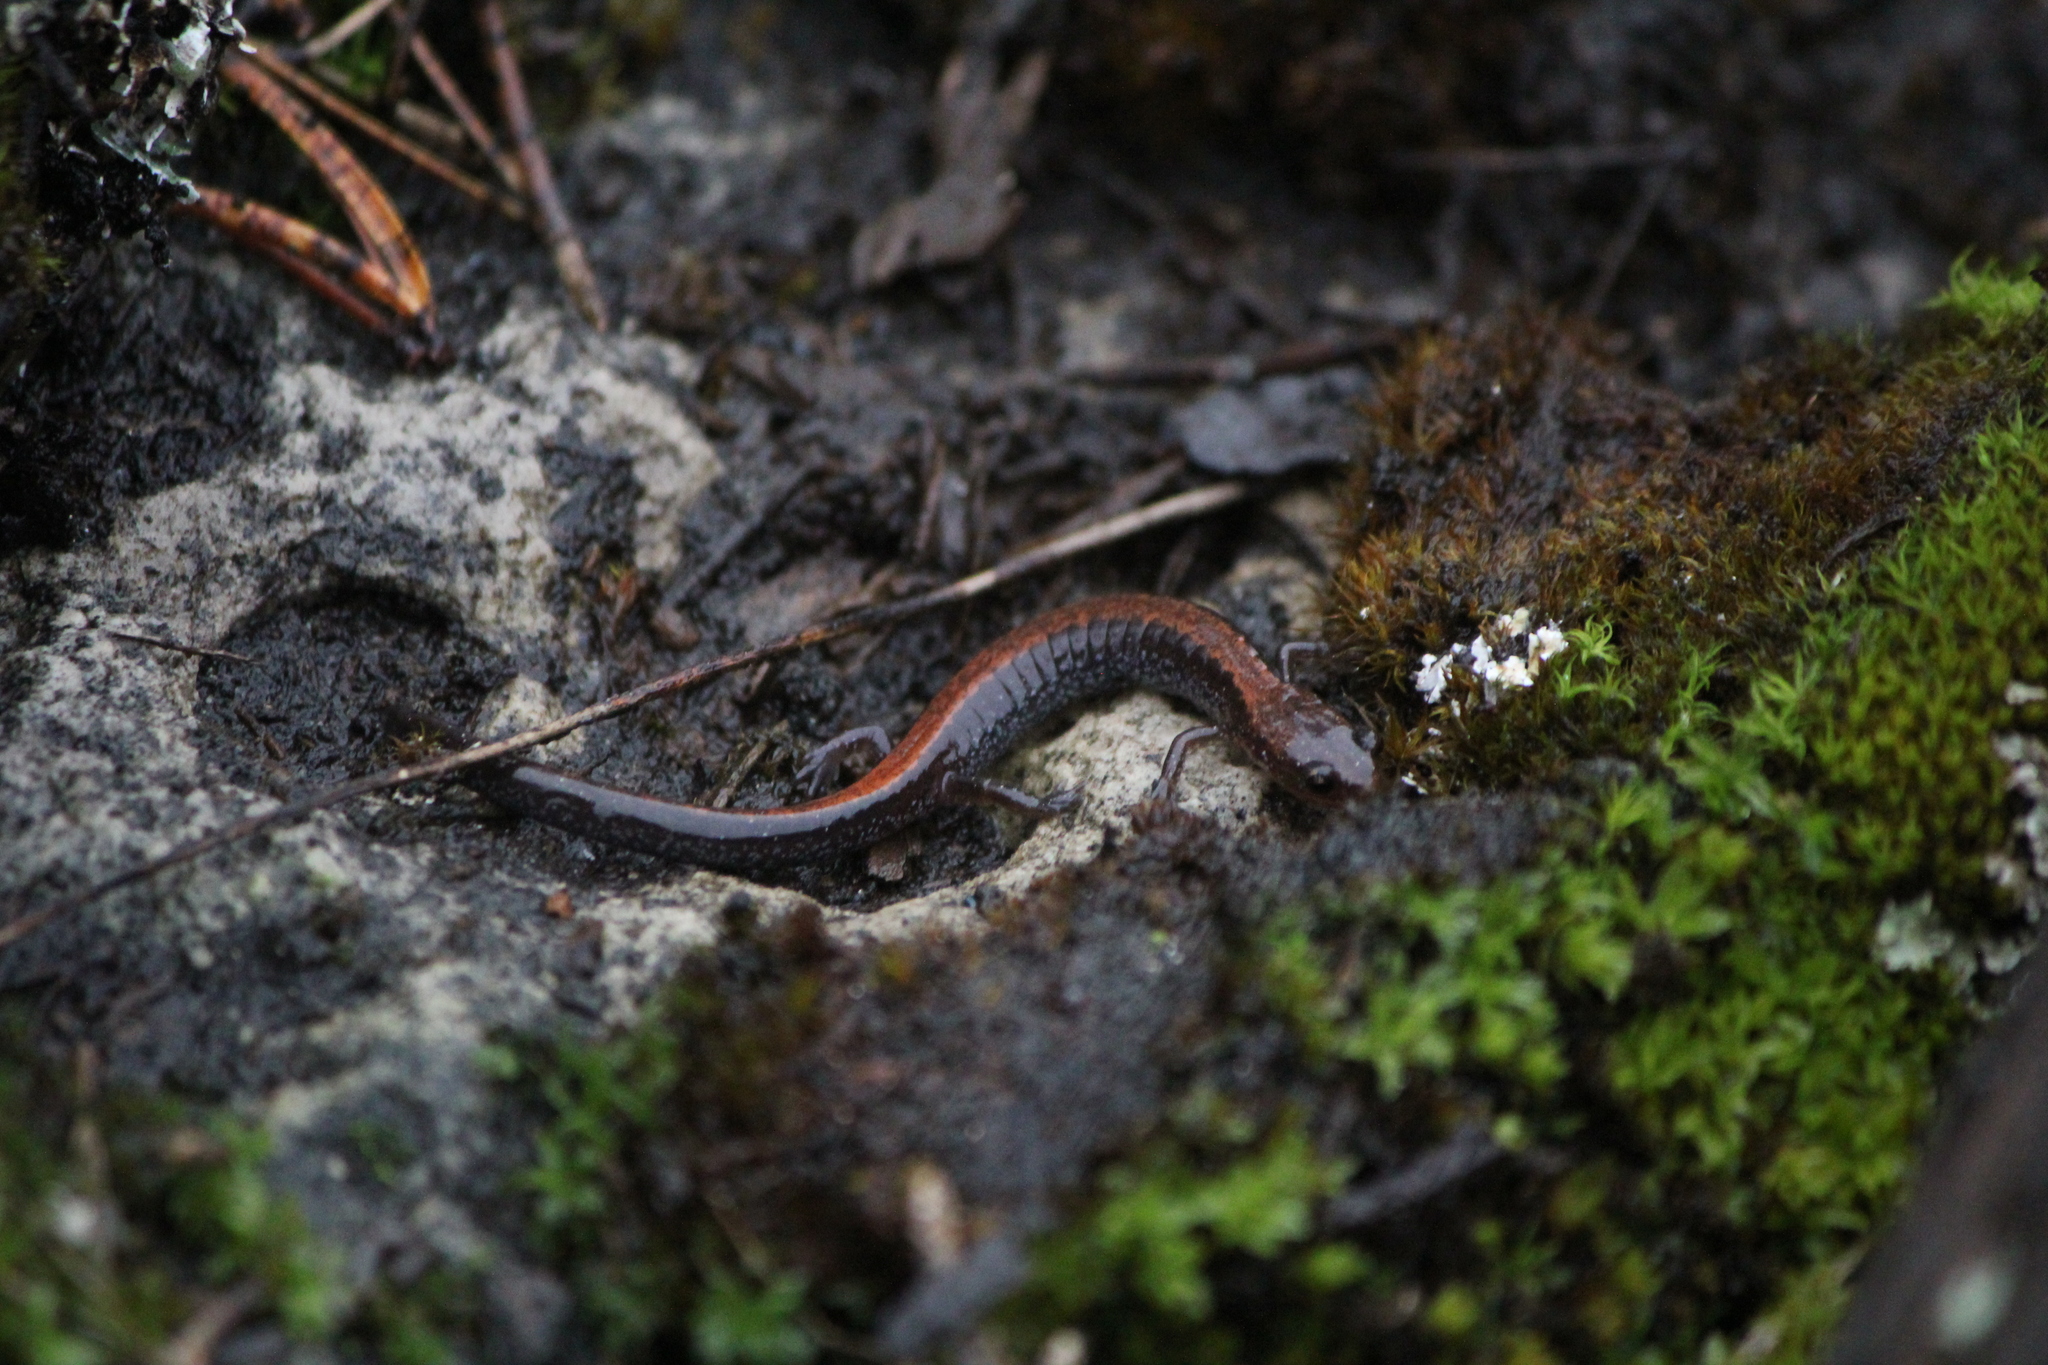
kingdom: Animalia
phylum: Chordata
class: Amphibia
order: Caudata
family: Plethodontidae
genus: Plethodon
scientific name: Plethodon cinereus
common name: Redback salamander
